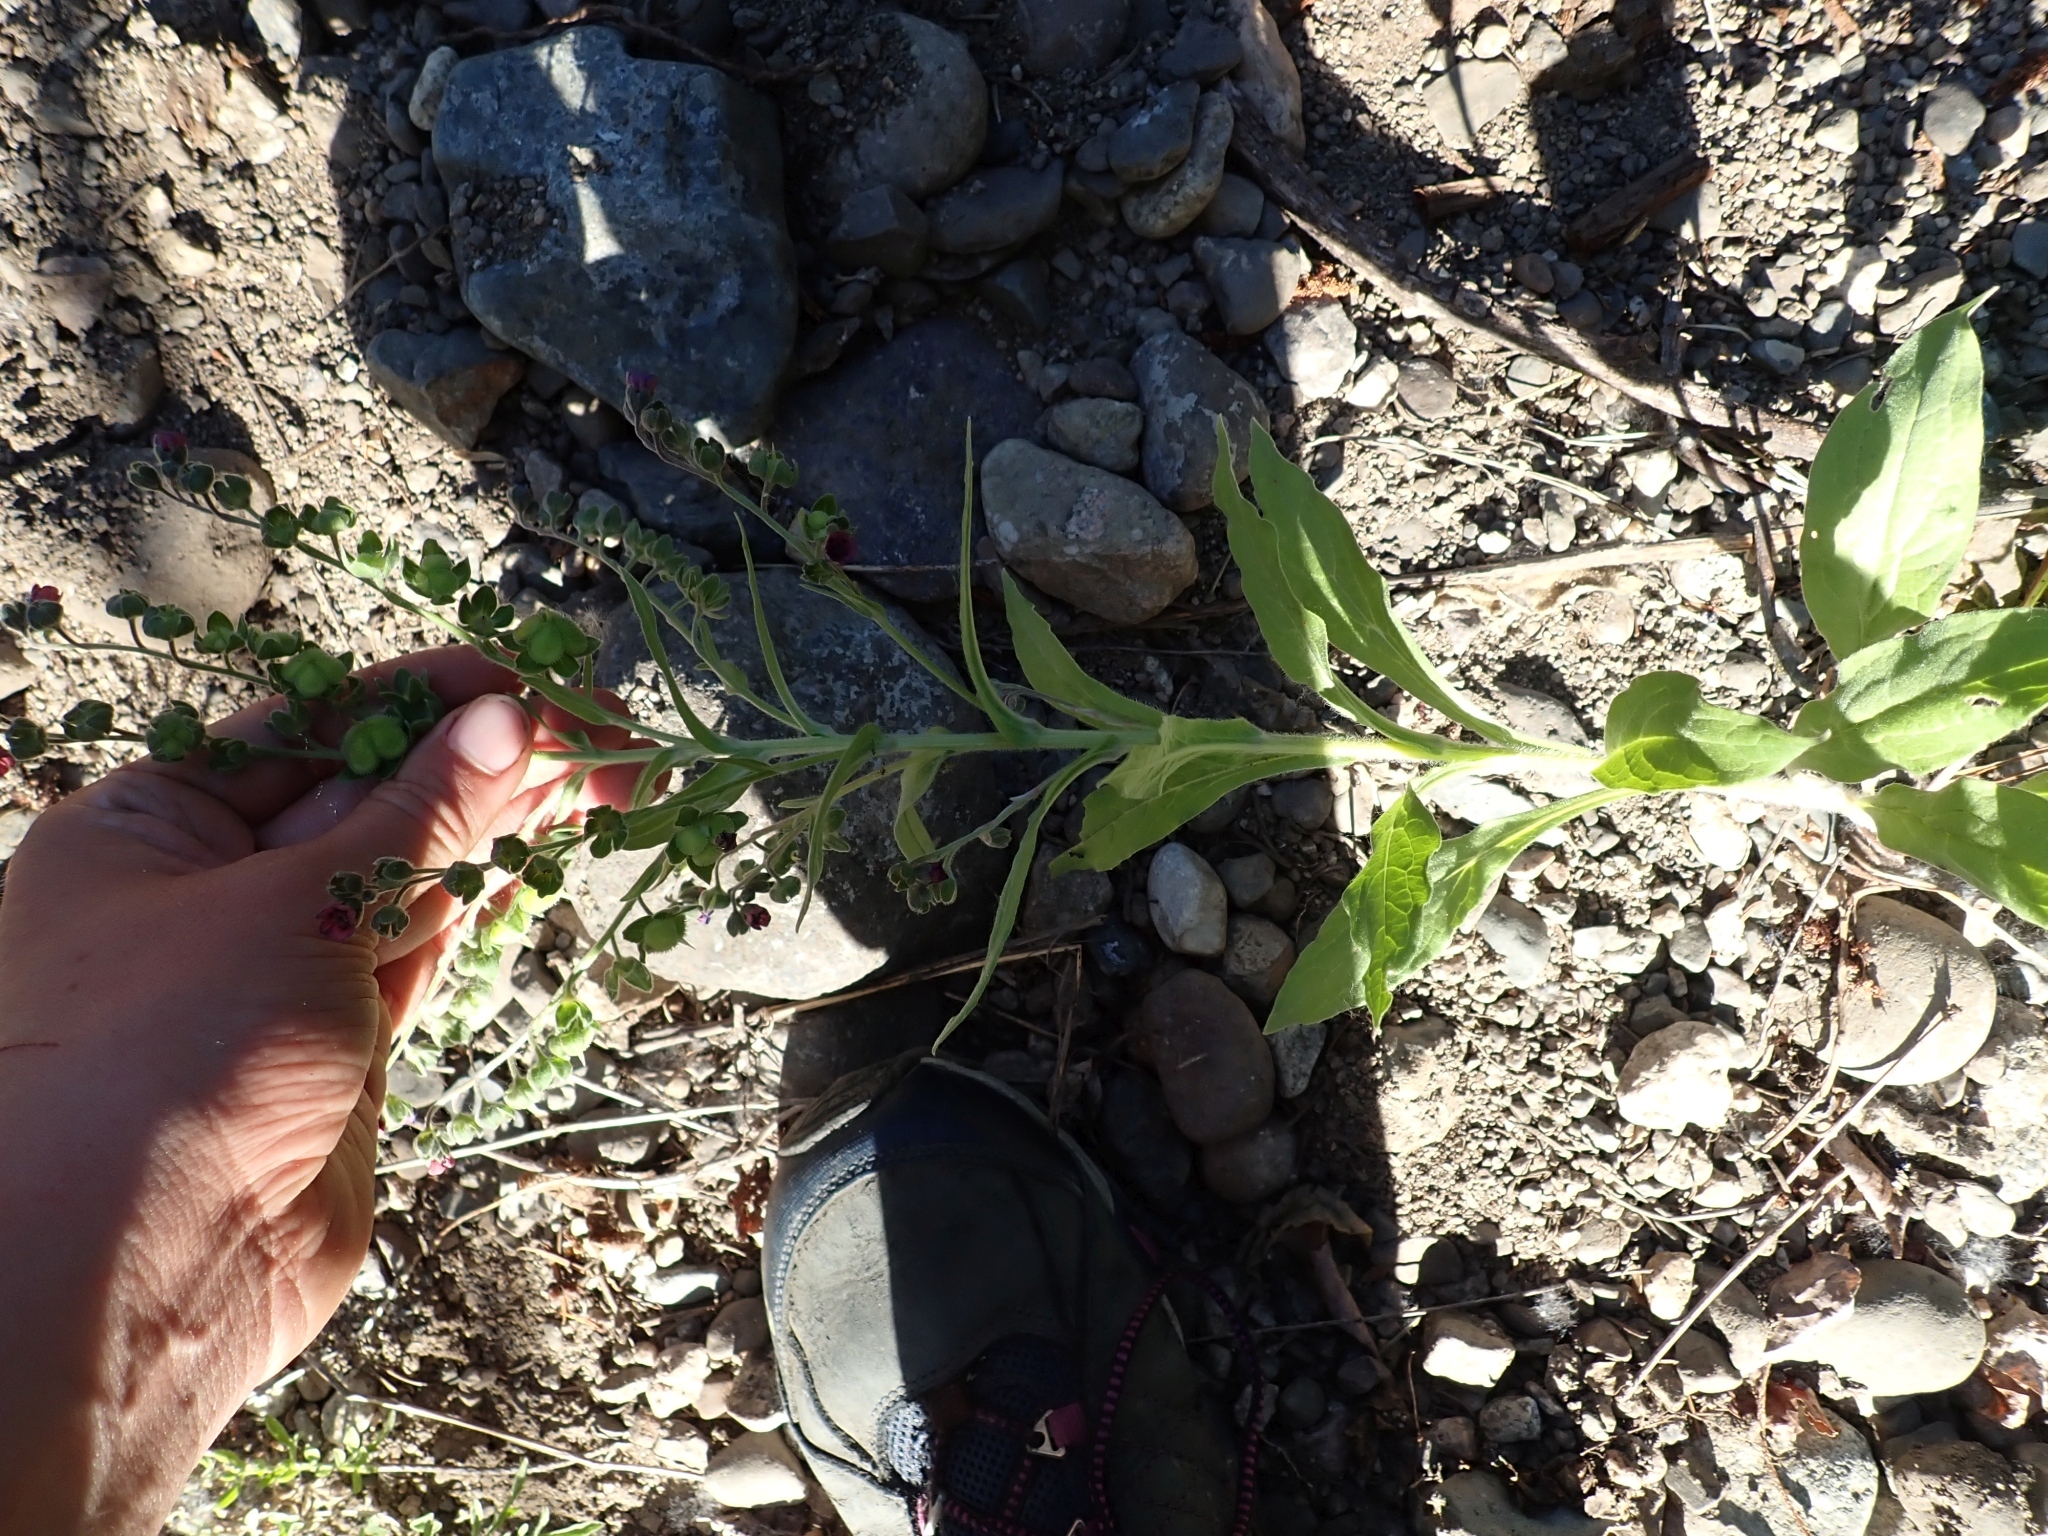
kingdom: Plantae
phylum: Tracheophyta
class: Magnoliopsida
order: Boraginales
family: Boraginaceae
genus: Cynoglossum
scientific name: Cynoglossum officinale
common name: Hound's-tongue
